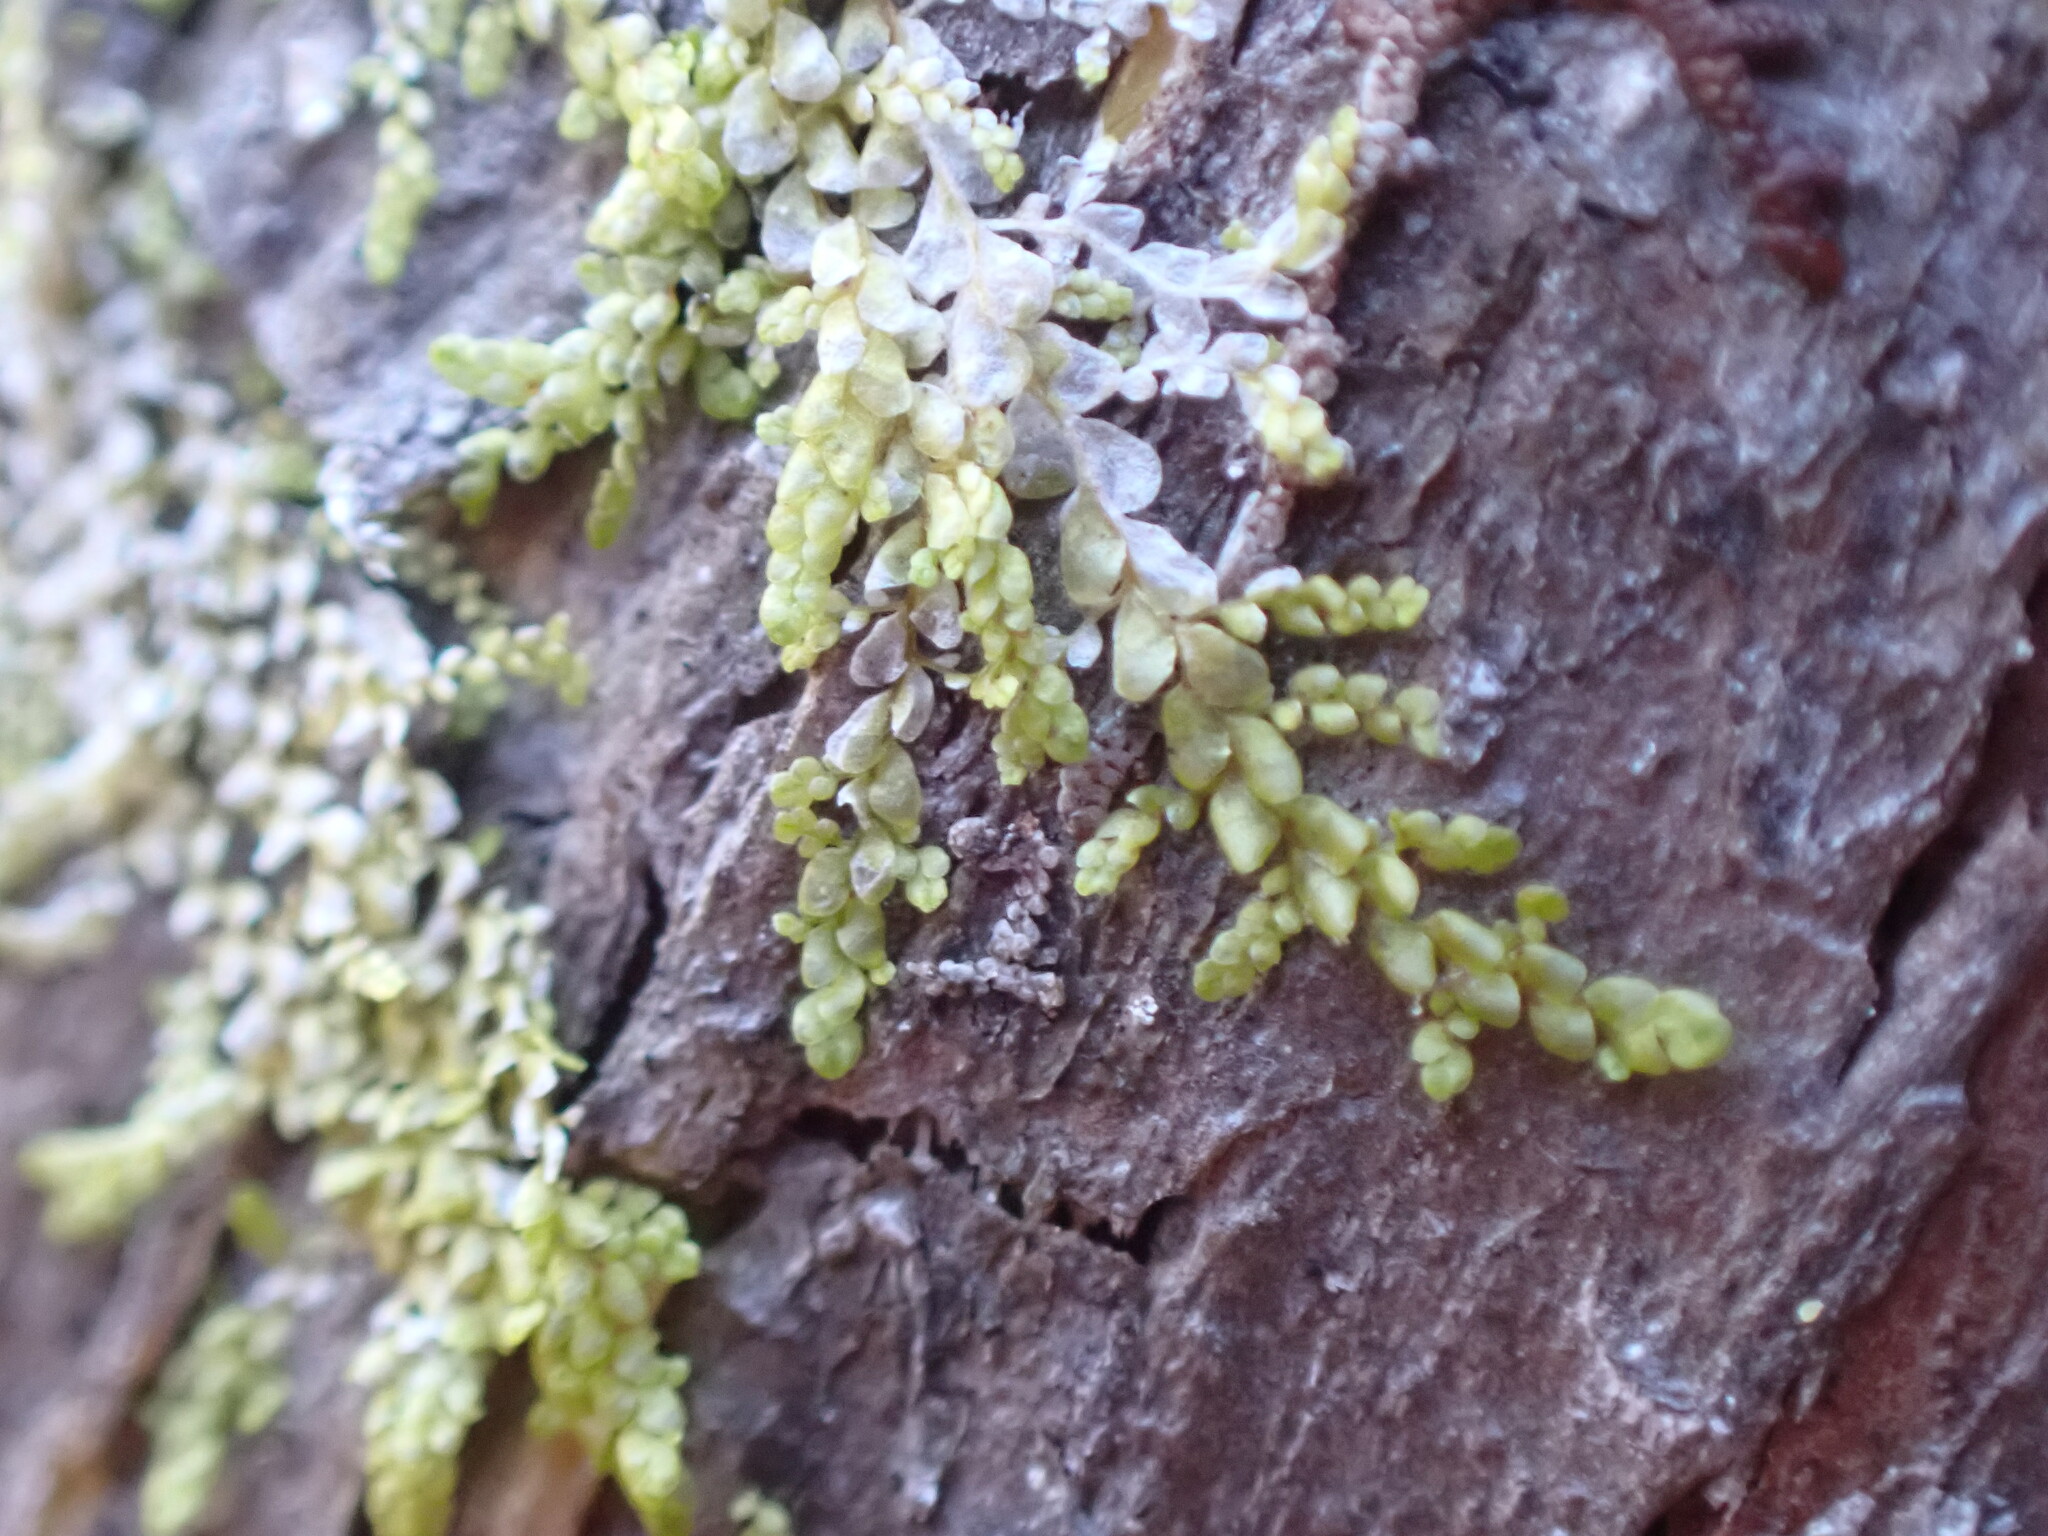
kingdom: Plantae
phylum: Marchantiophyta
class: Jungermanniopsida
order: Porellales
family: Radulaceae
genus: Radula
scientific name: Radula bolanderi
